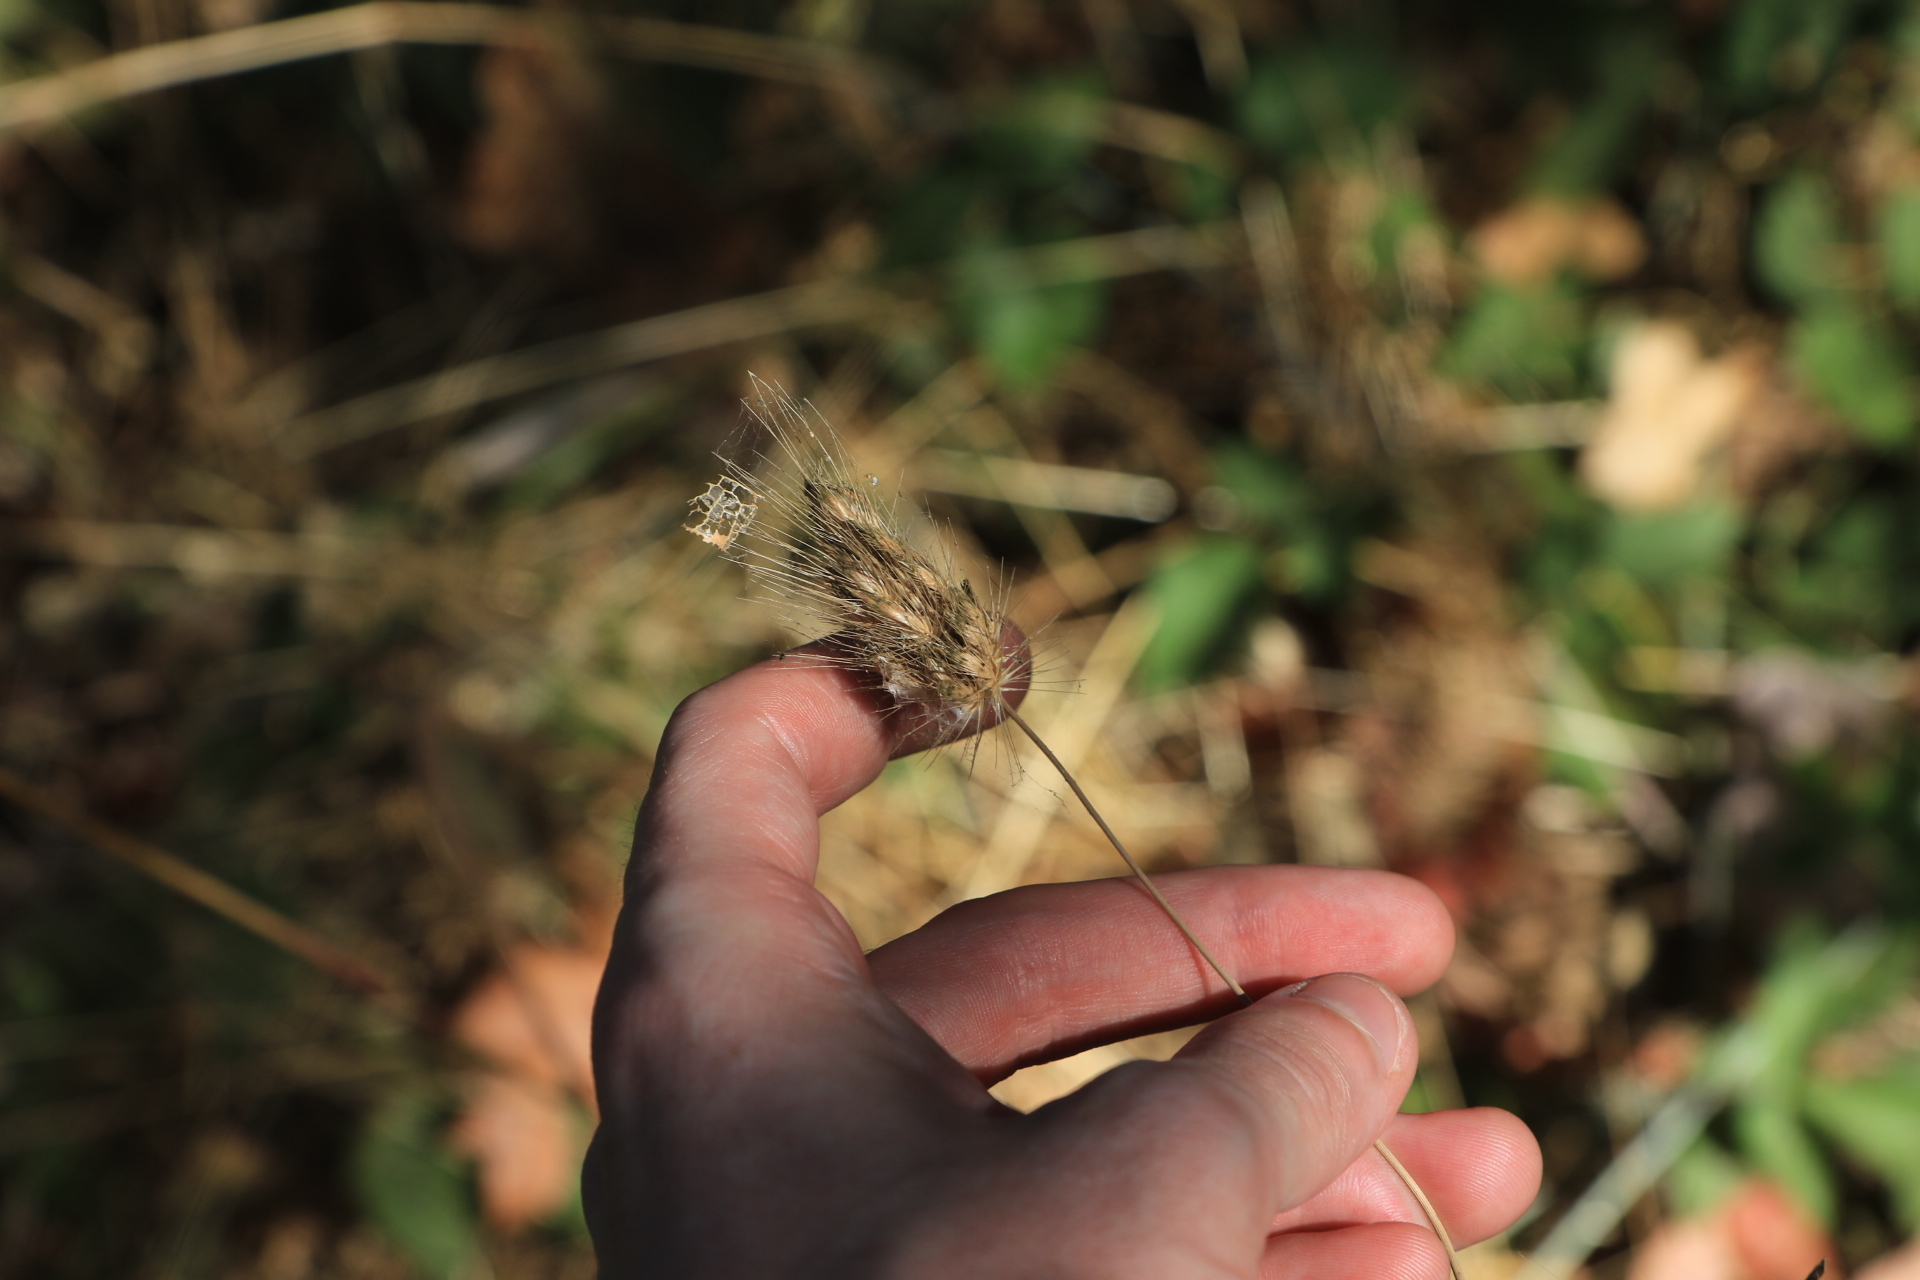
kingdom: Plantae
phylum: Tracheophyta
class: Liliopsida
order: Poales
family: Poaceae
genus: Cynosurus
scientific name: Cynosurus echinatus
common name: Rough dog's-tail
